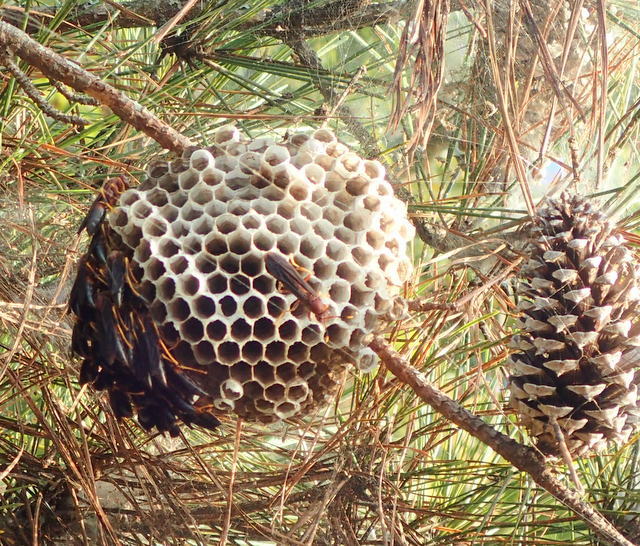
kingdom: Animalia
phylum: Arthropoda
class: Insecta
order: Hymenoptera
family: Eumenidae
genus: Polistes
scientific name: Polistes annularis
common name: Ringed paper wasp
